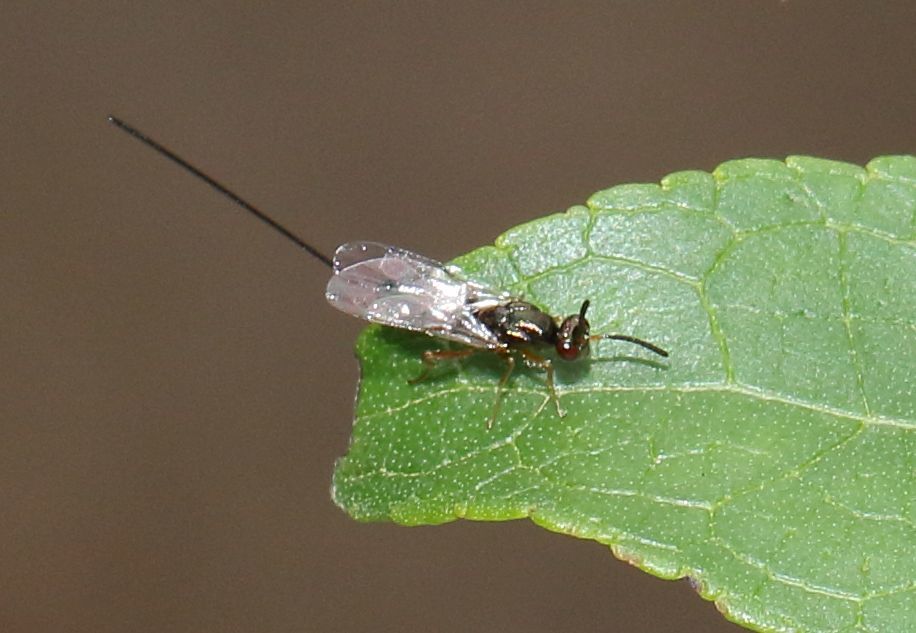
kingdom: Plantae
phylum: Tracheophyta
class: Magnoliopsida
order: Lamiales
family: Stilbaceae
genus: Halleria
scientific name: Halleria lucida
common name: Tree fuschia
